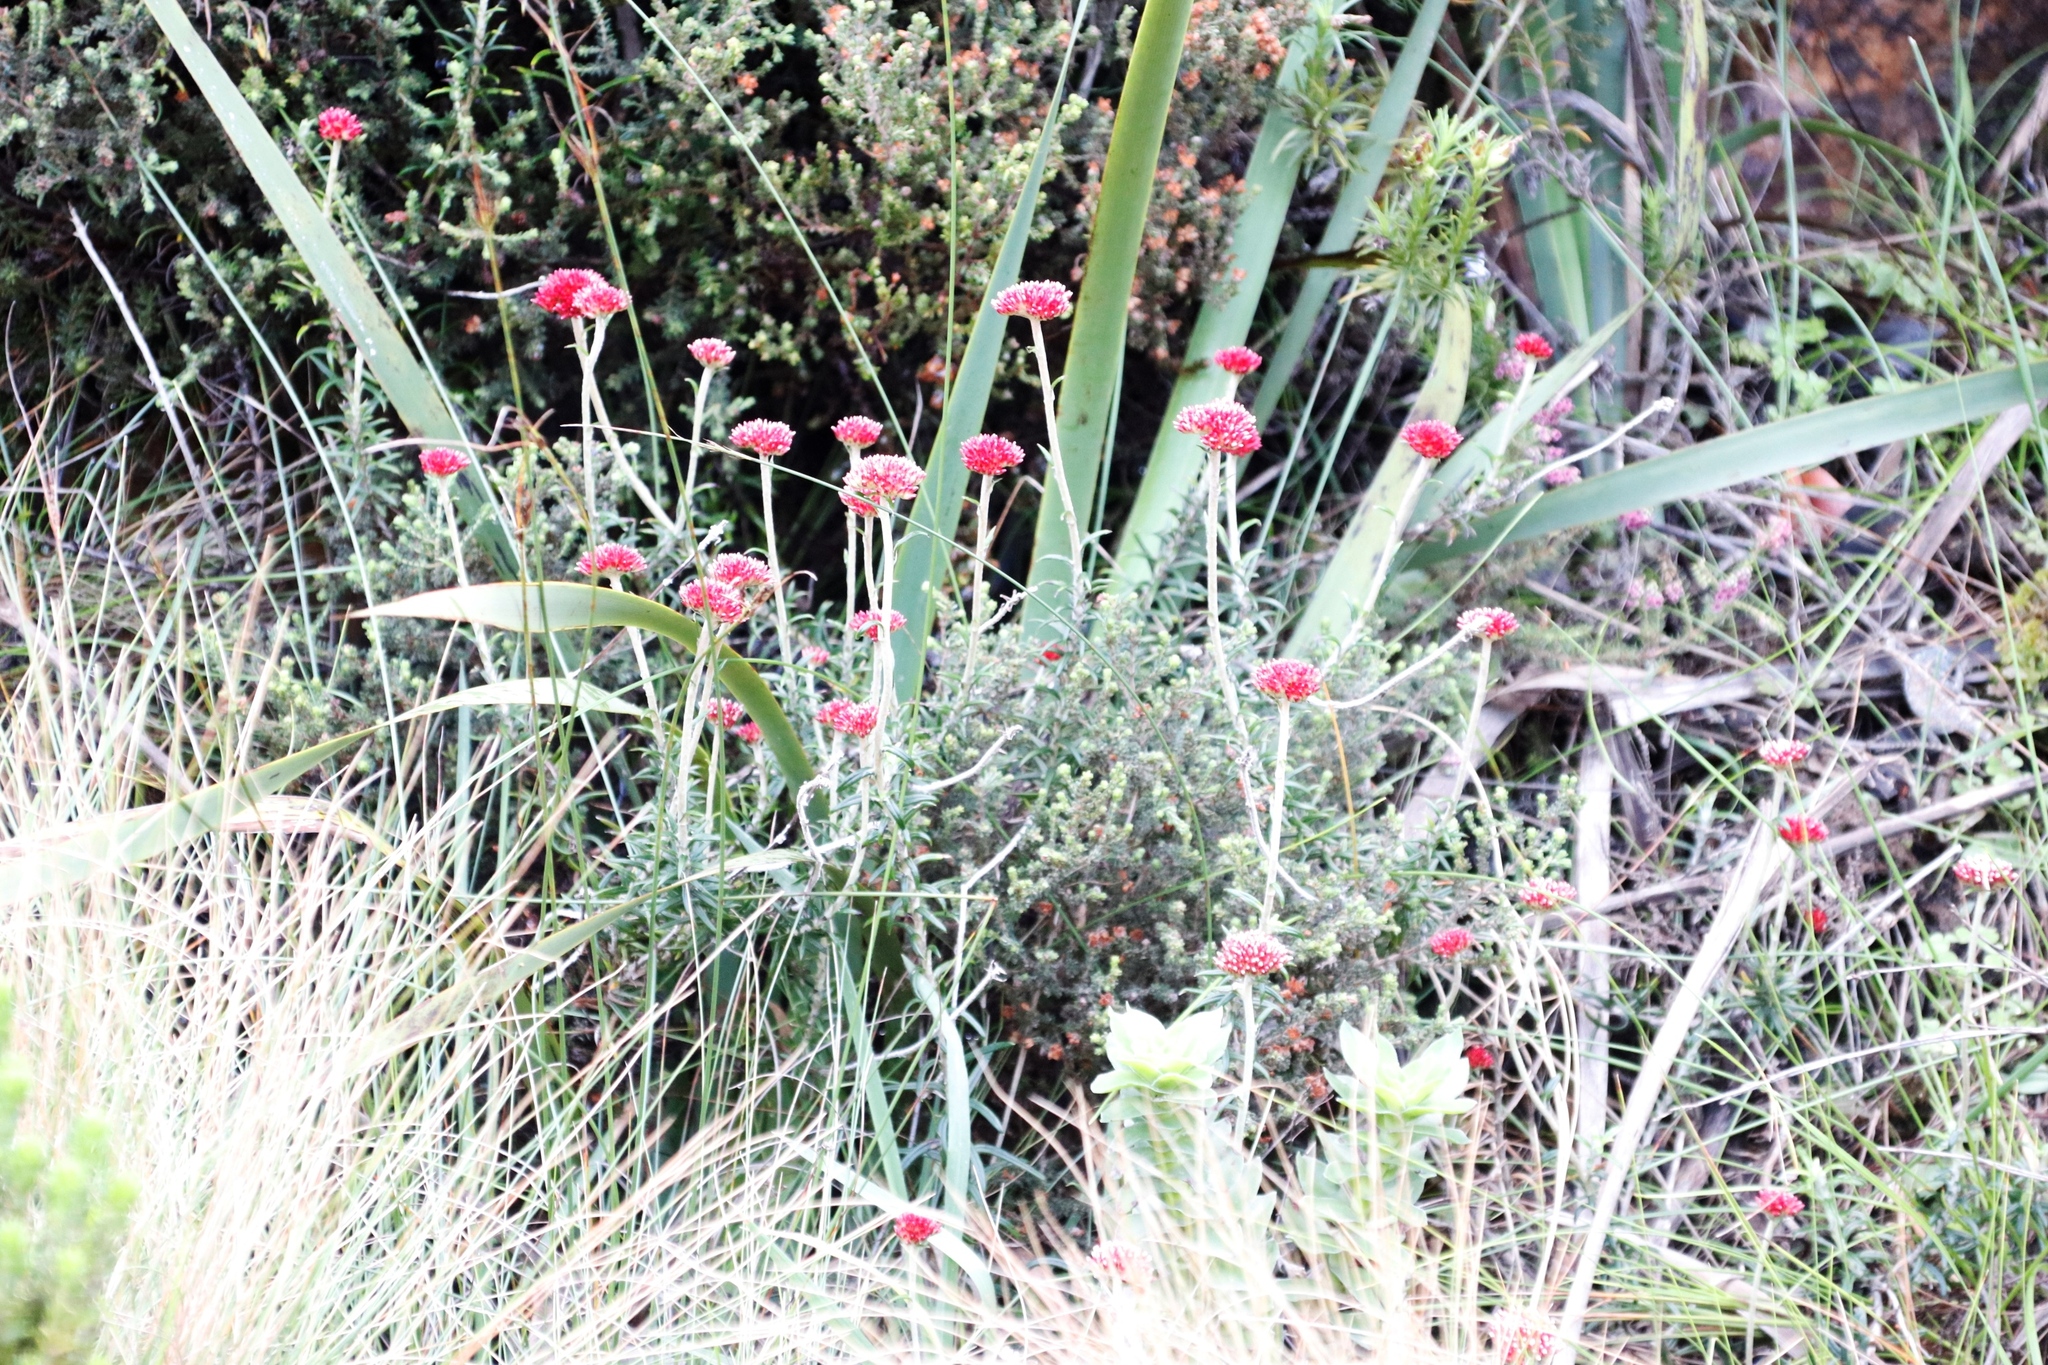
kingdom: Plantae
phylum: Tracheophyta
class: Magnoliopsida
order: Asterales
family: Asteraceae
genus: Anaxeton
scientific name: Anaxeton arborescens
